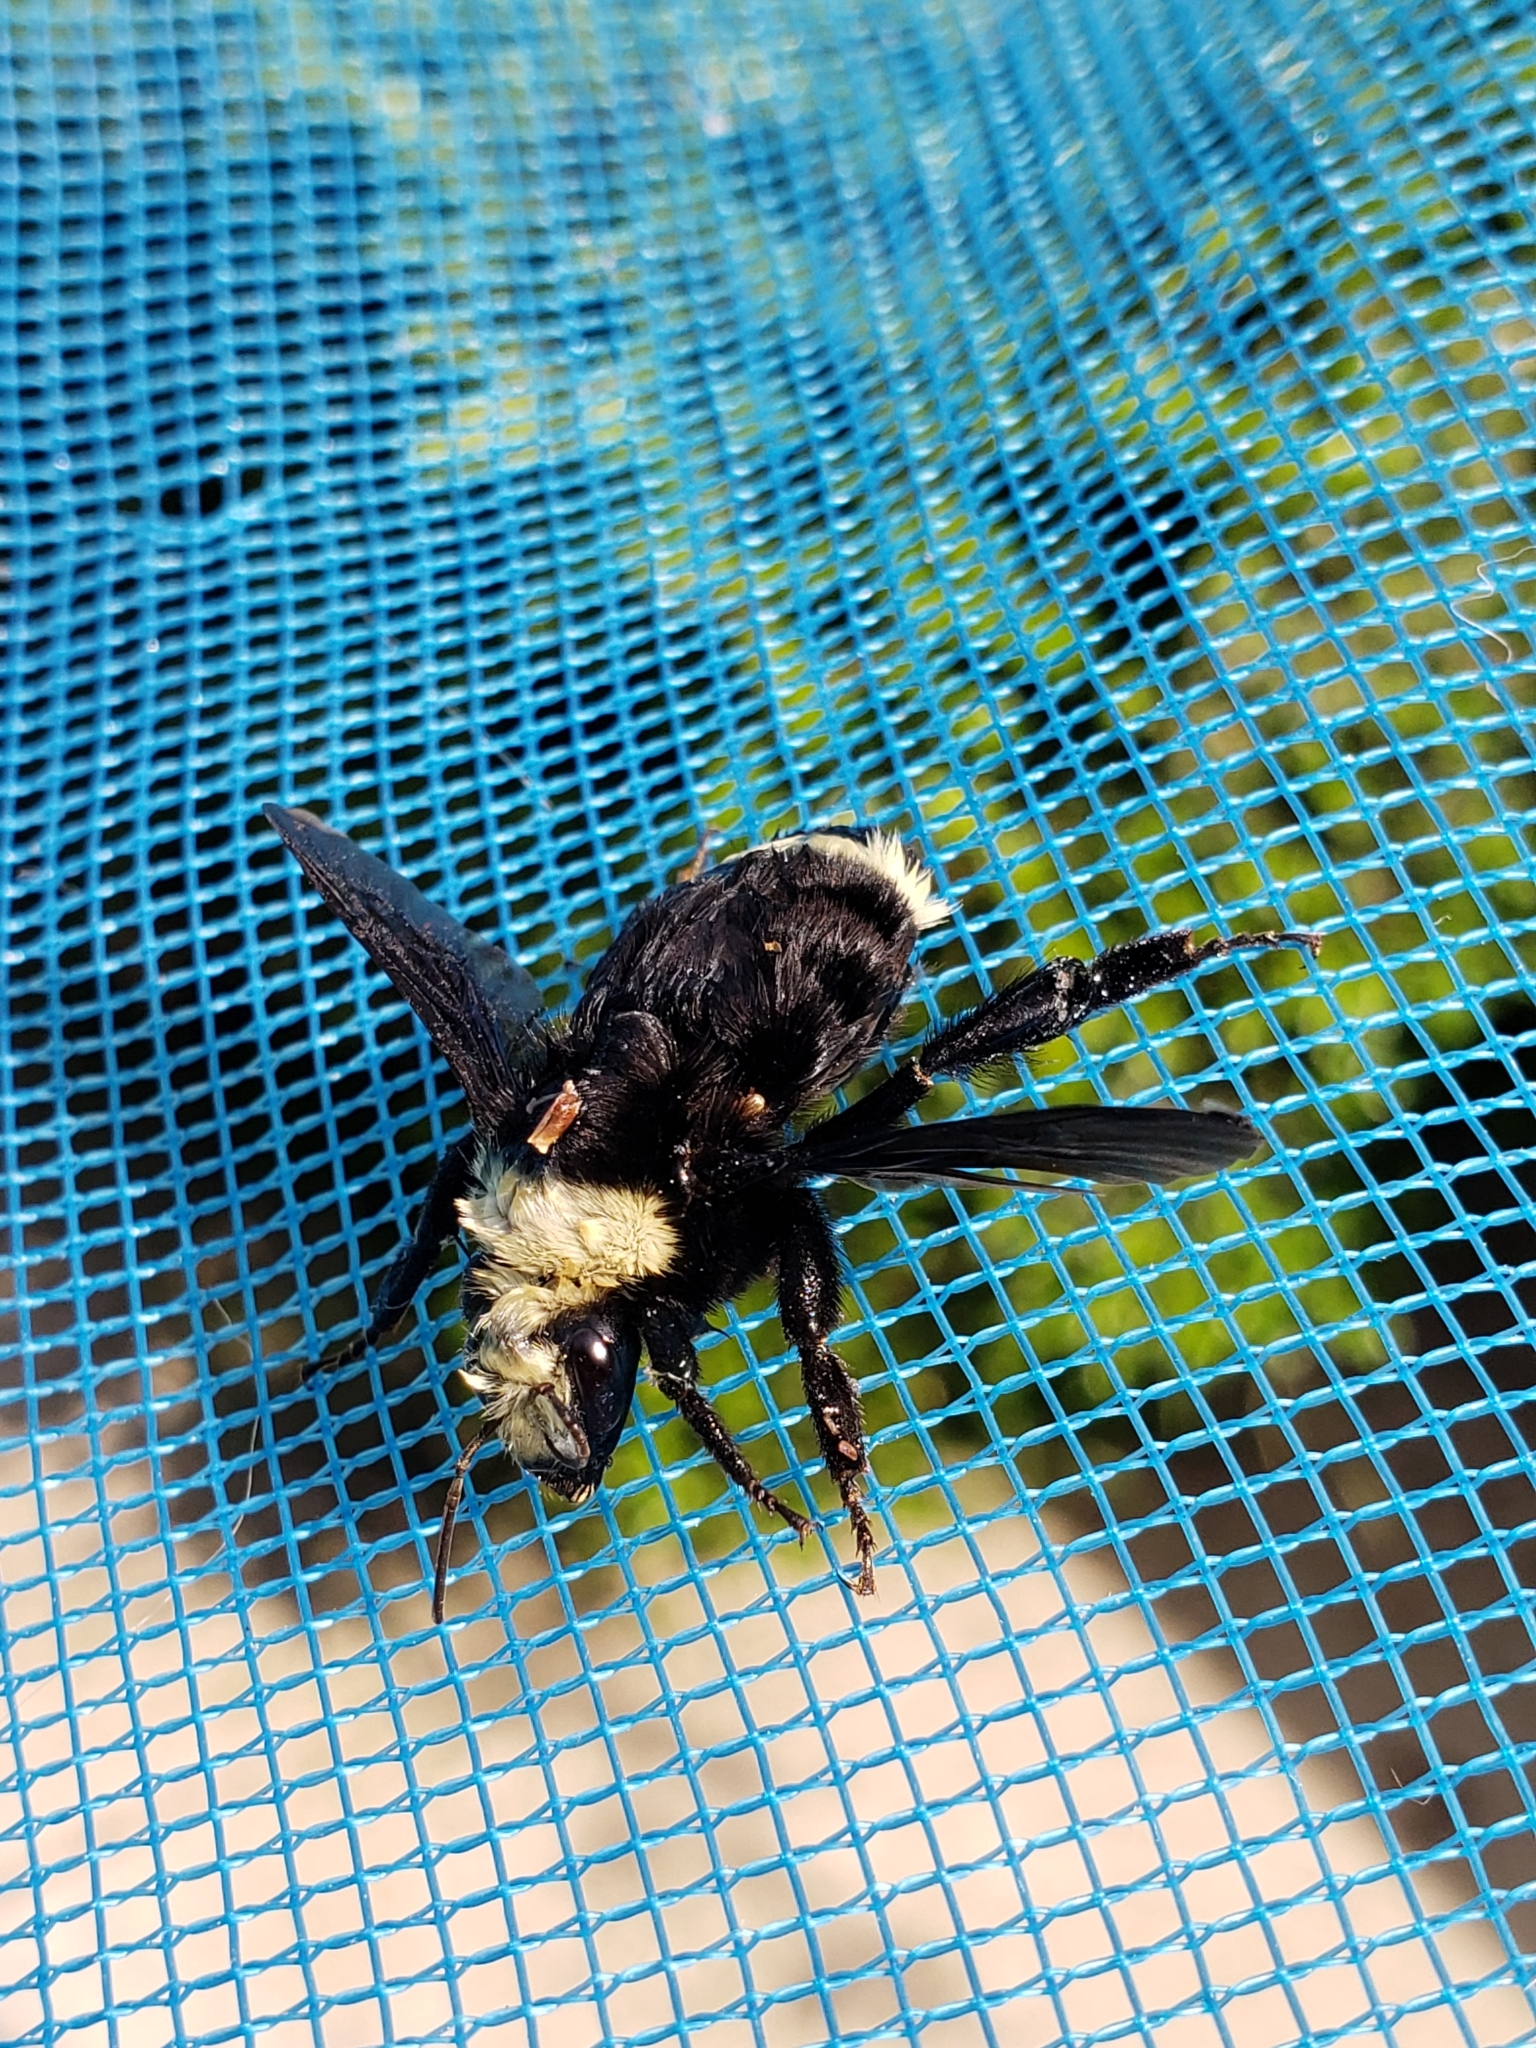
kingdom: Animalia
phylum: Arthropoda
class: Insecta
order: Hymenoptera
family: Apidae
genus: Bombus
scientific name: Bombus vosnesenskii
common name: Vosnesensky bumble bee
